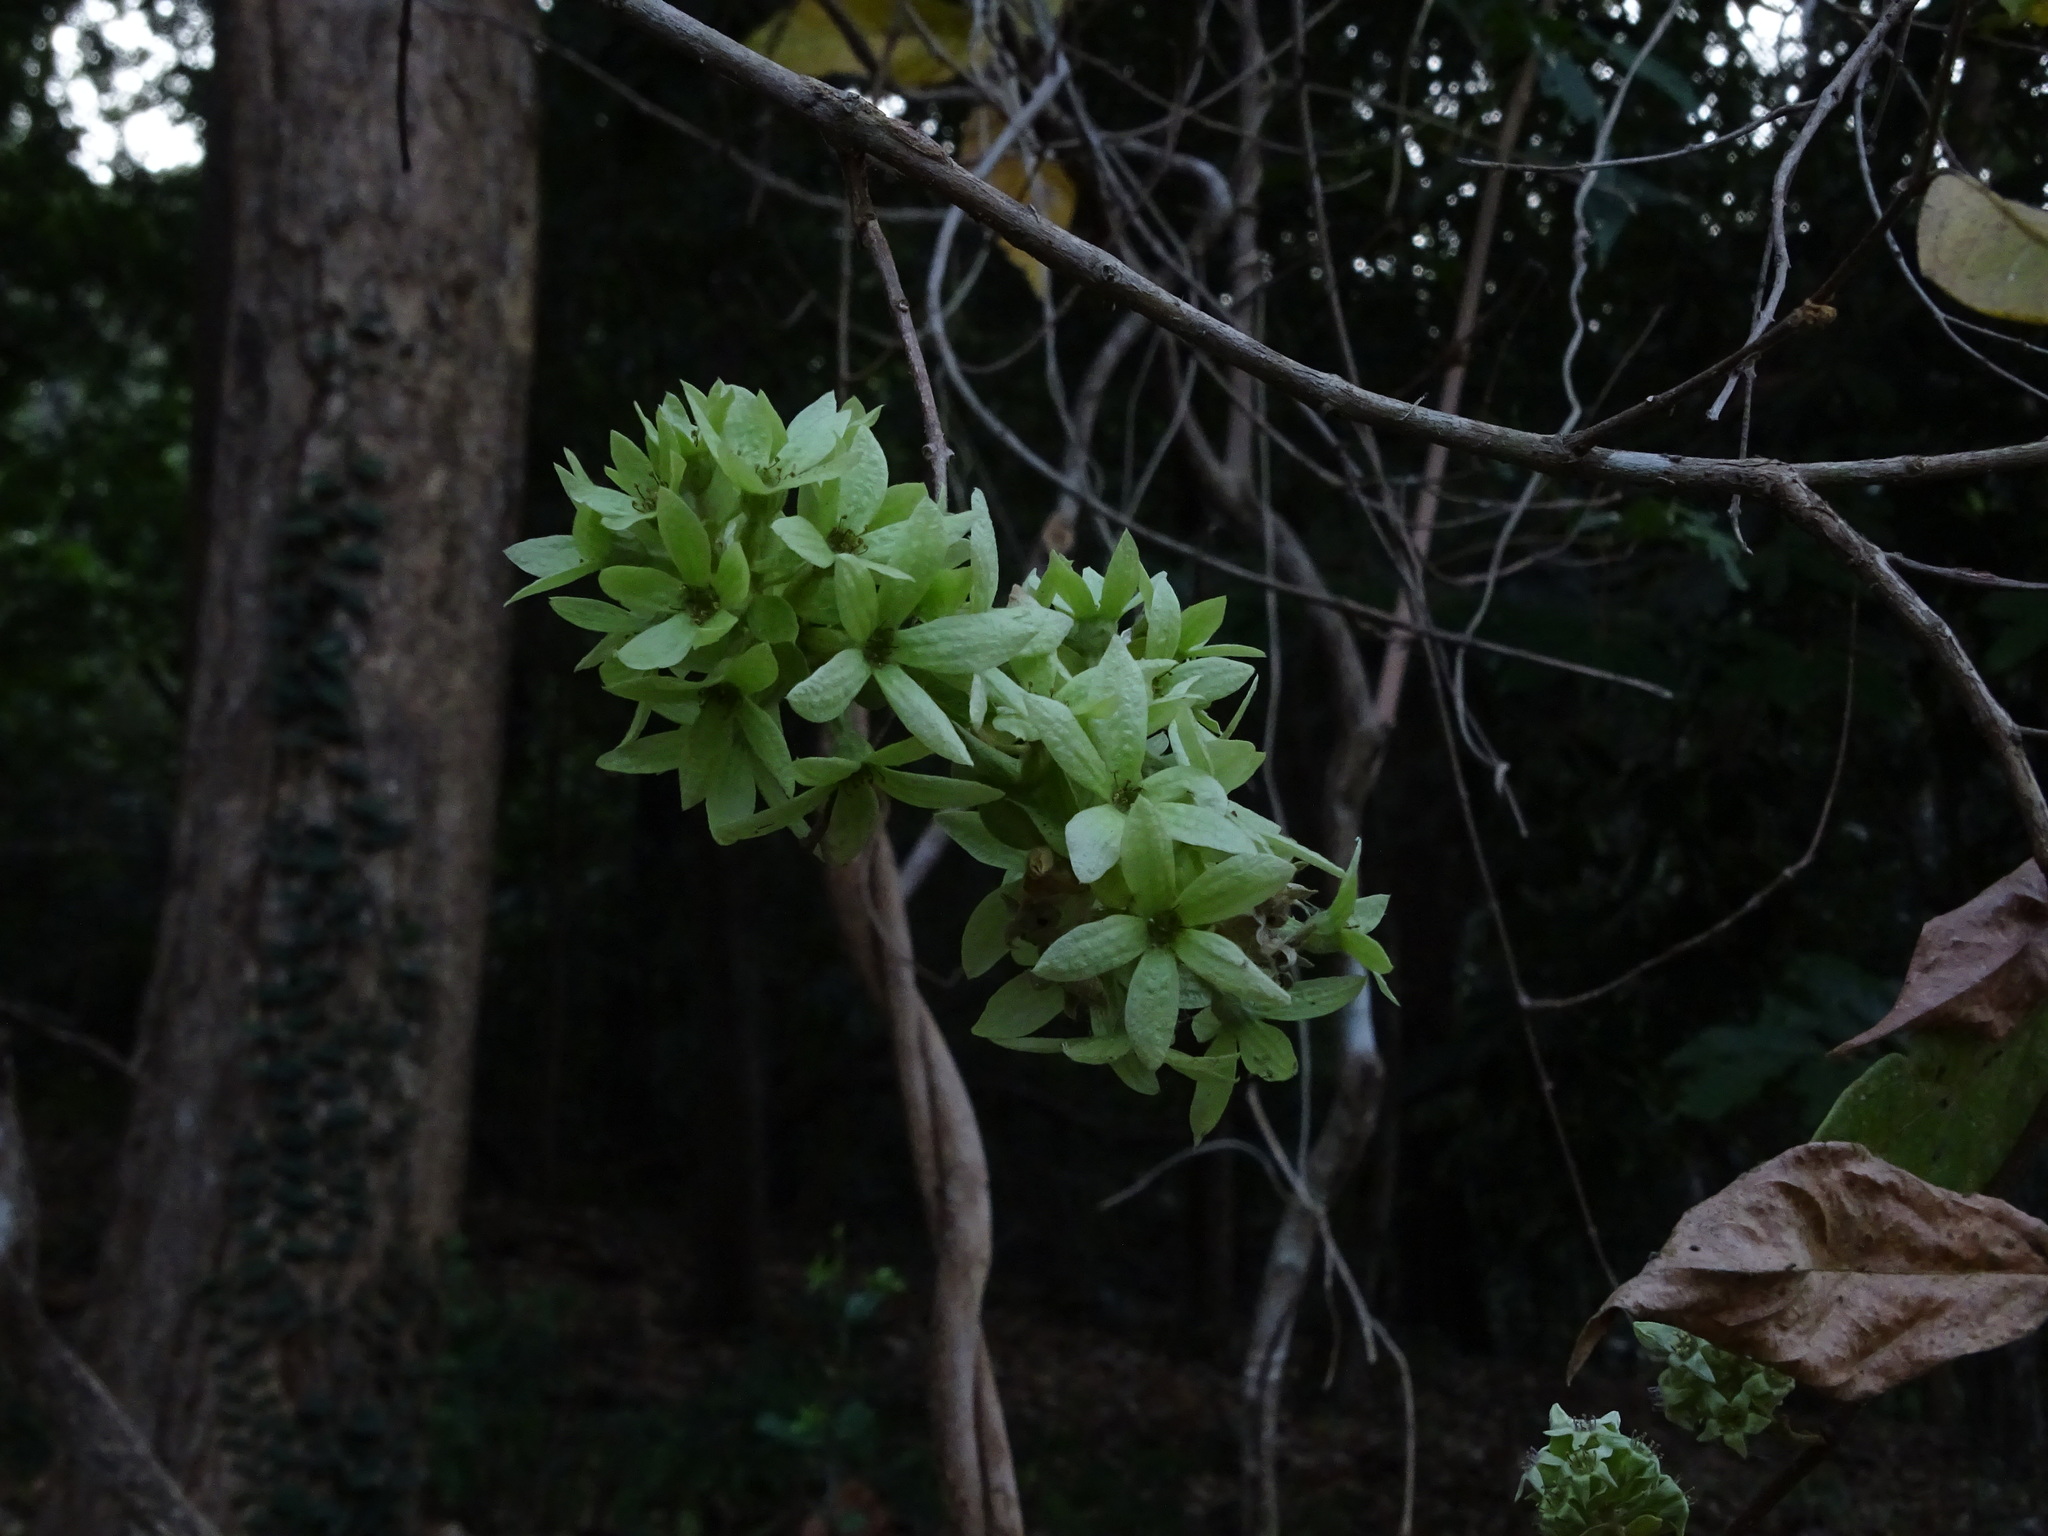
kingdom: Plantae
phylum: Tracheophyta
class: Magnoliopsida
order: Myrtales
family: Combretaceae
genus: Getonia
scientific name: Getonia floribunda
